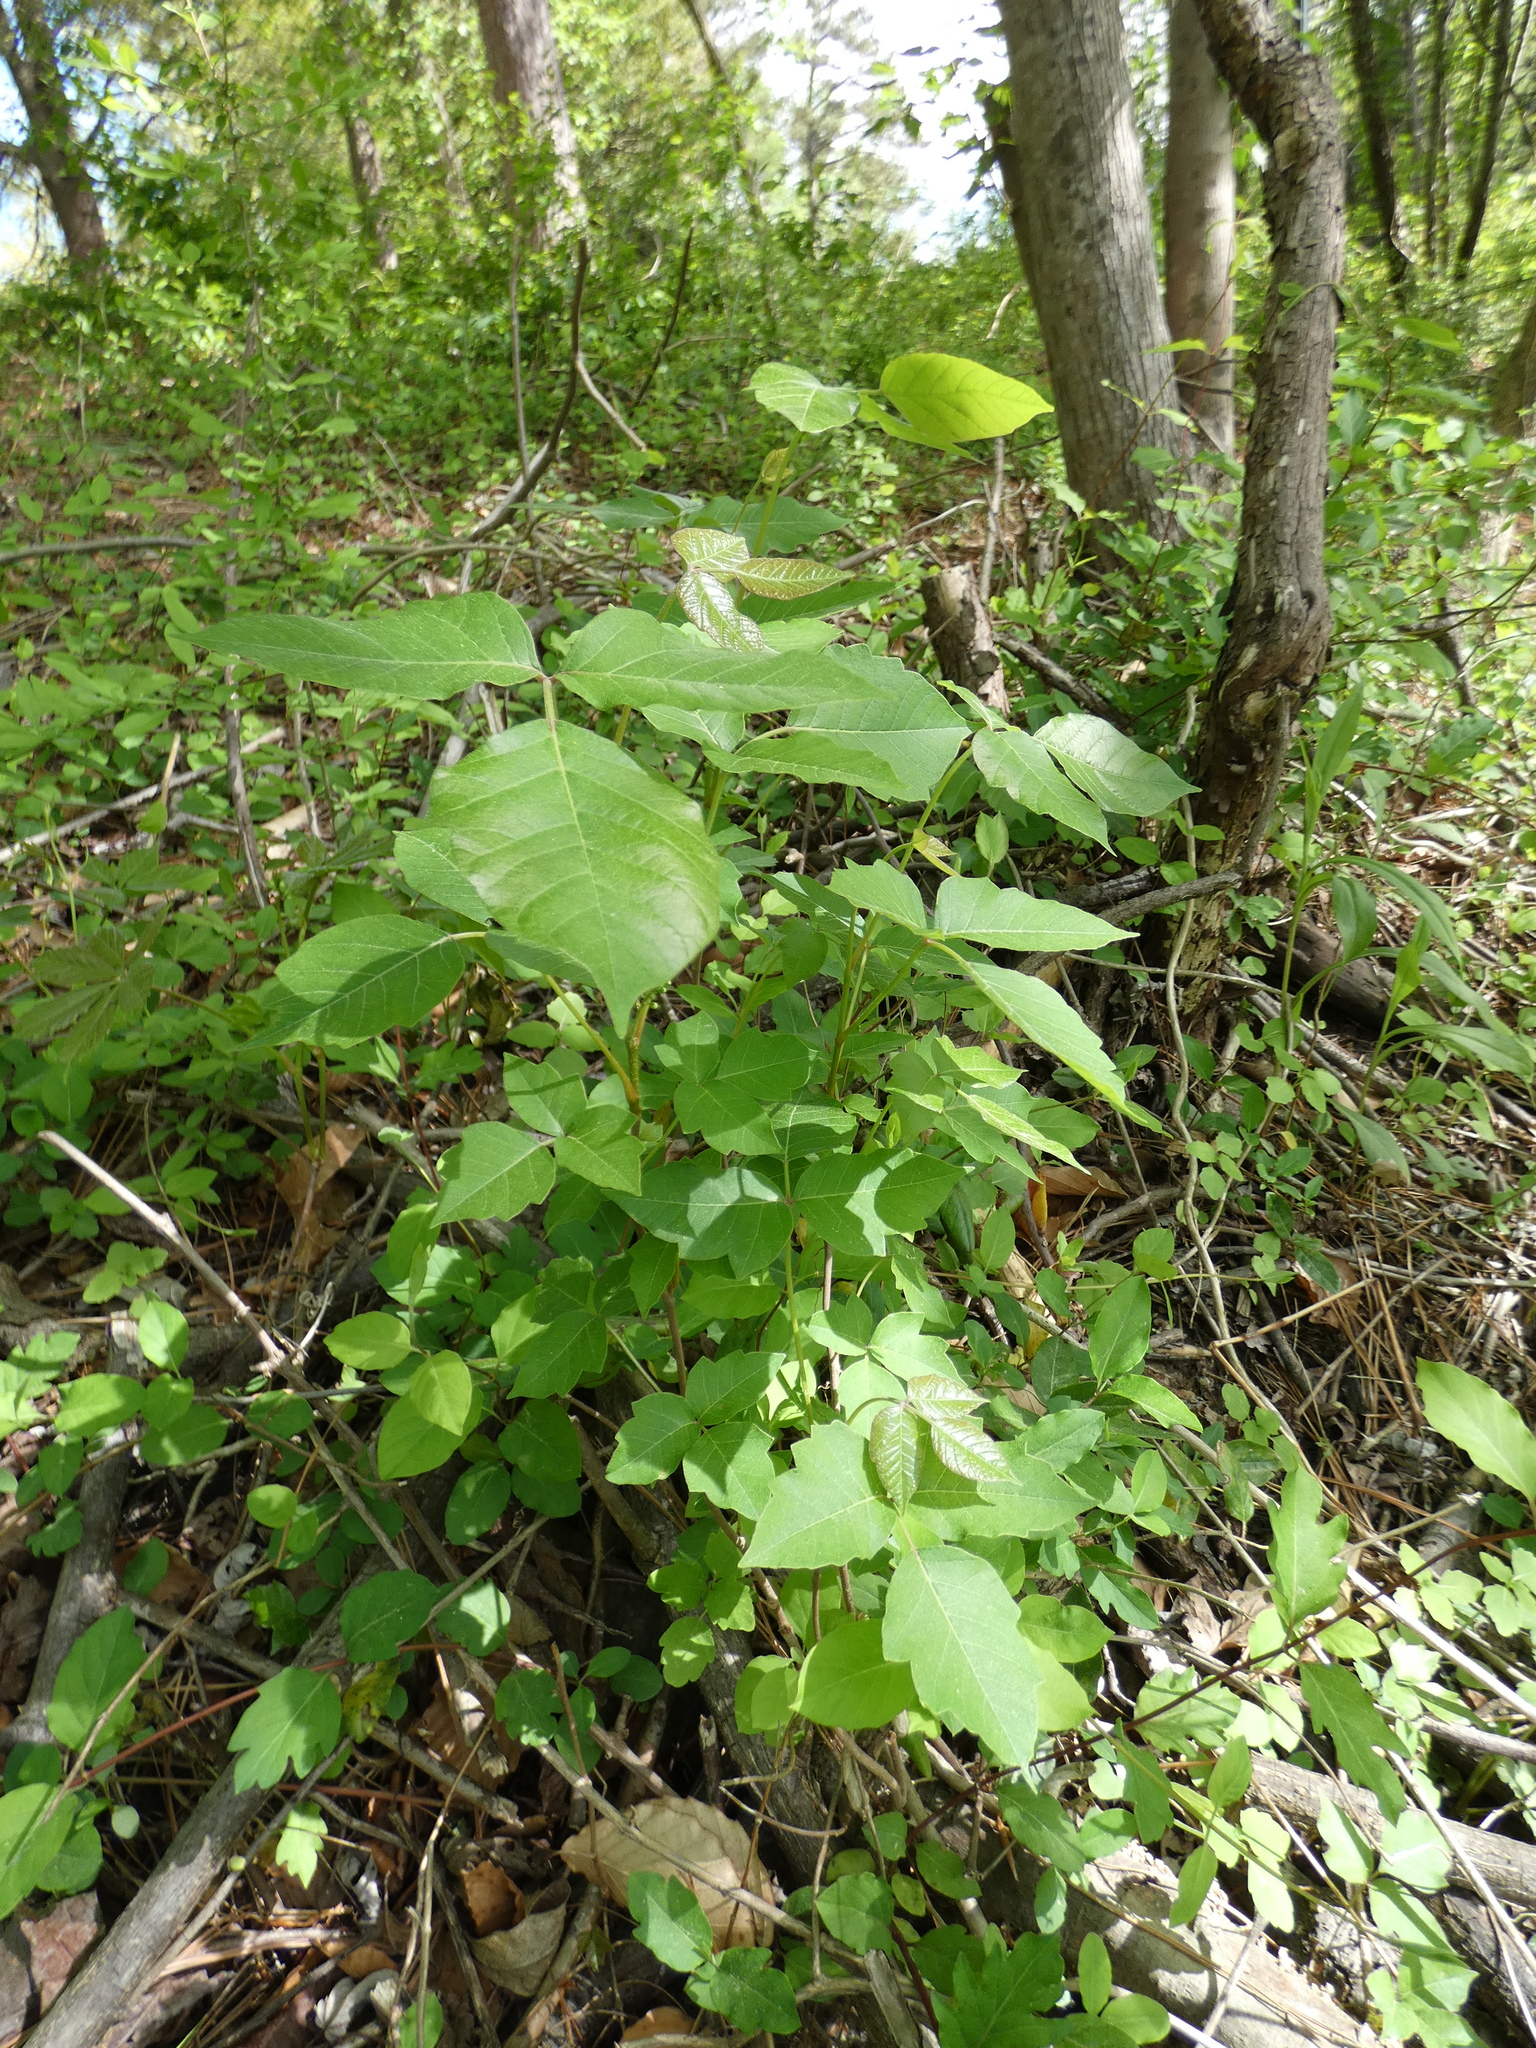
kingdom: Plantae
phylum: Tracheophyta
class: Magnoliopsida
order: Sapindales
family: Anacardiaceae
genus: Toxicodendron
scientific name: Toxicodendron radicans
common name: Poison ivy
